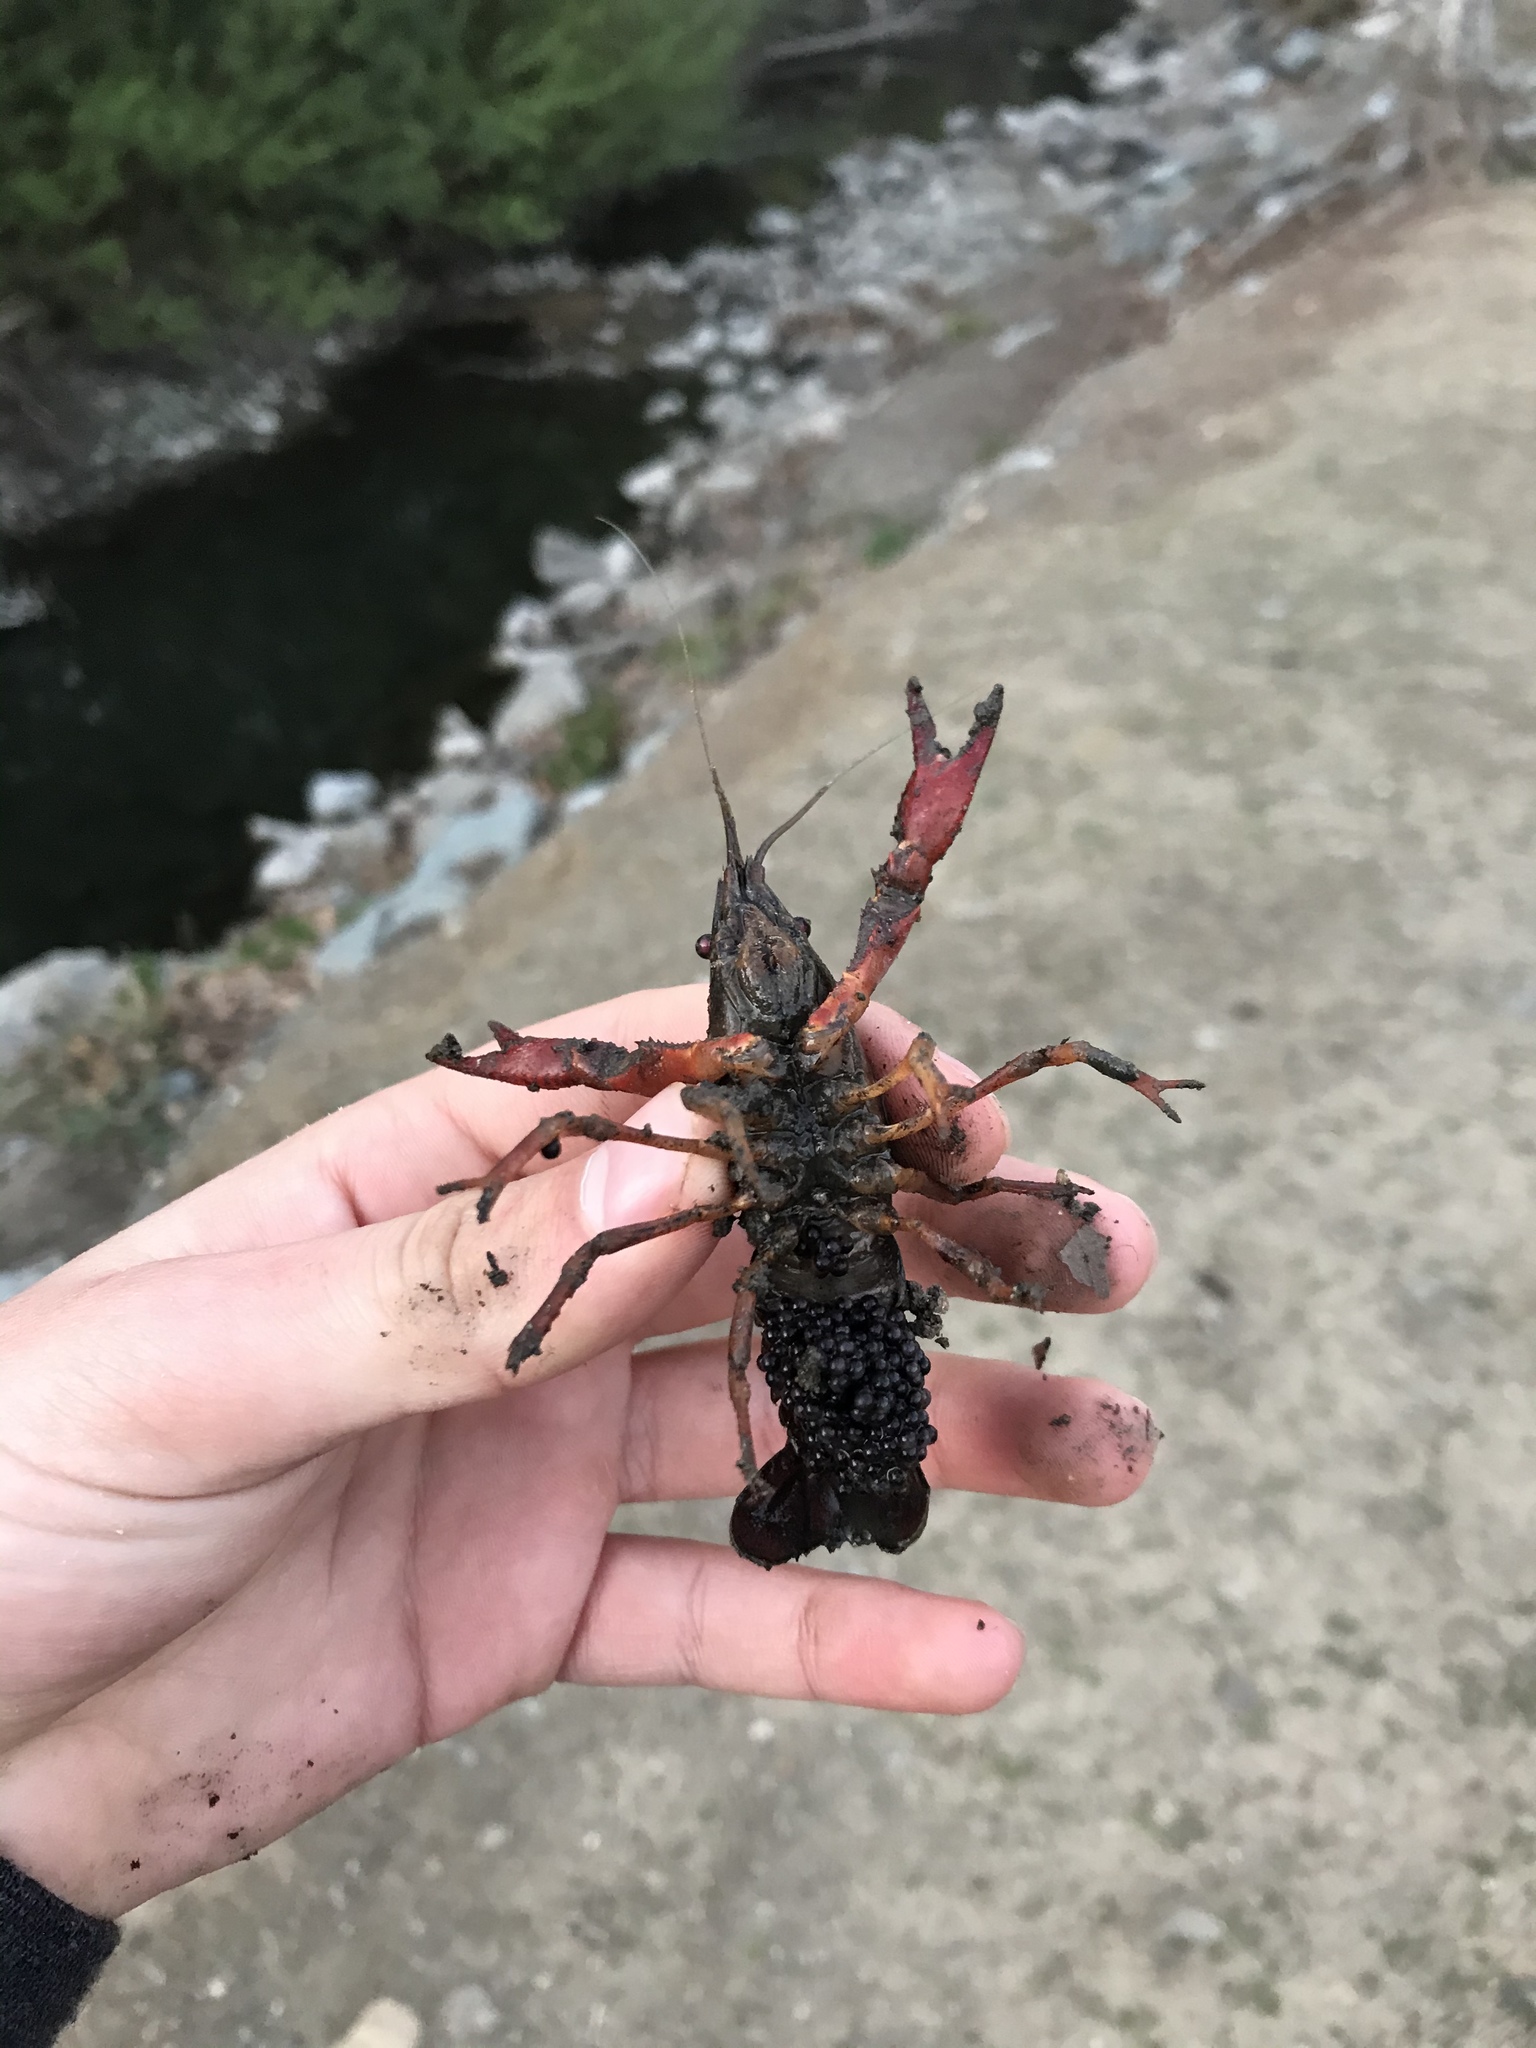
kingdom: Animalia
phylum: Arthropoda
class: Malacostraca
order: Decapoda
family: Cambaridae
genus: Procambarus
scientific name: Procambarus clarkii
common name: Red swamp crayfish
